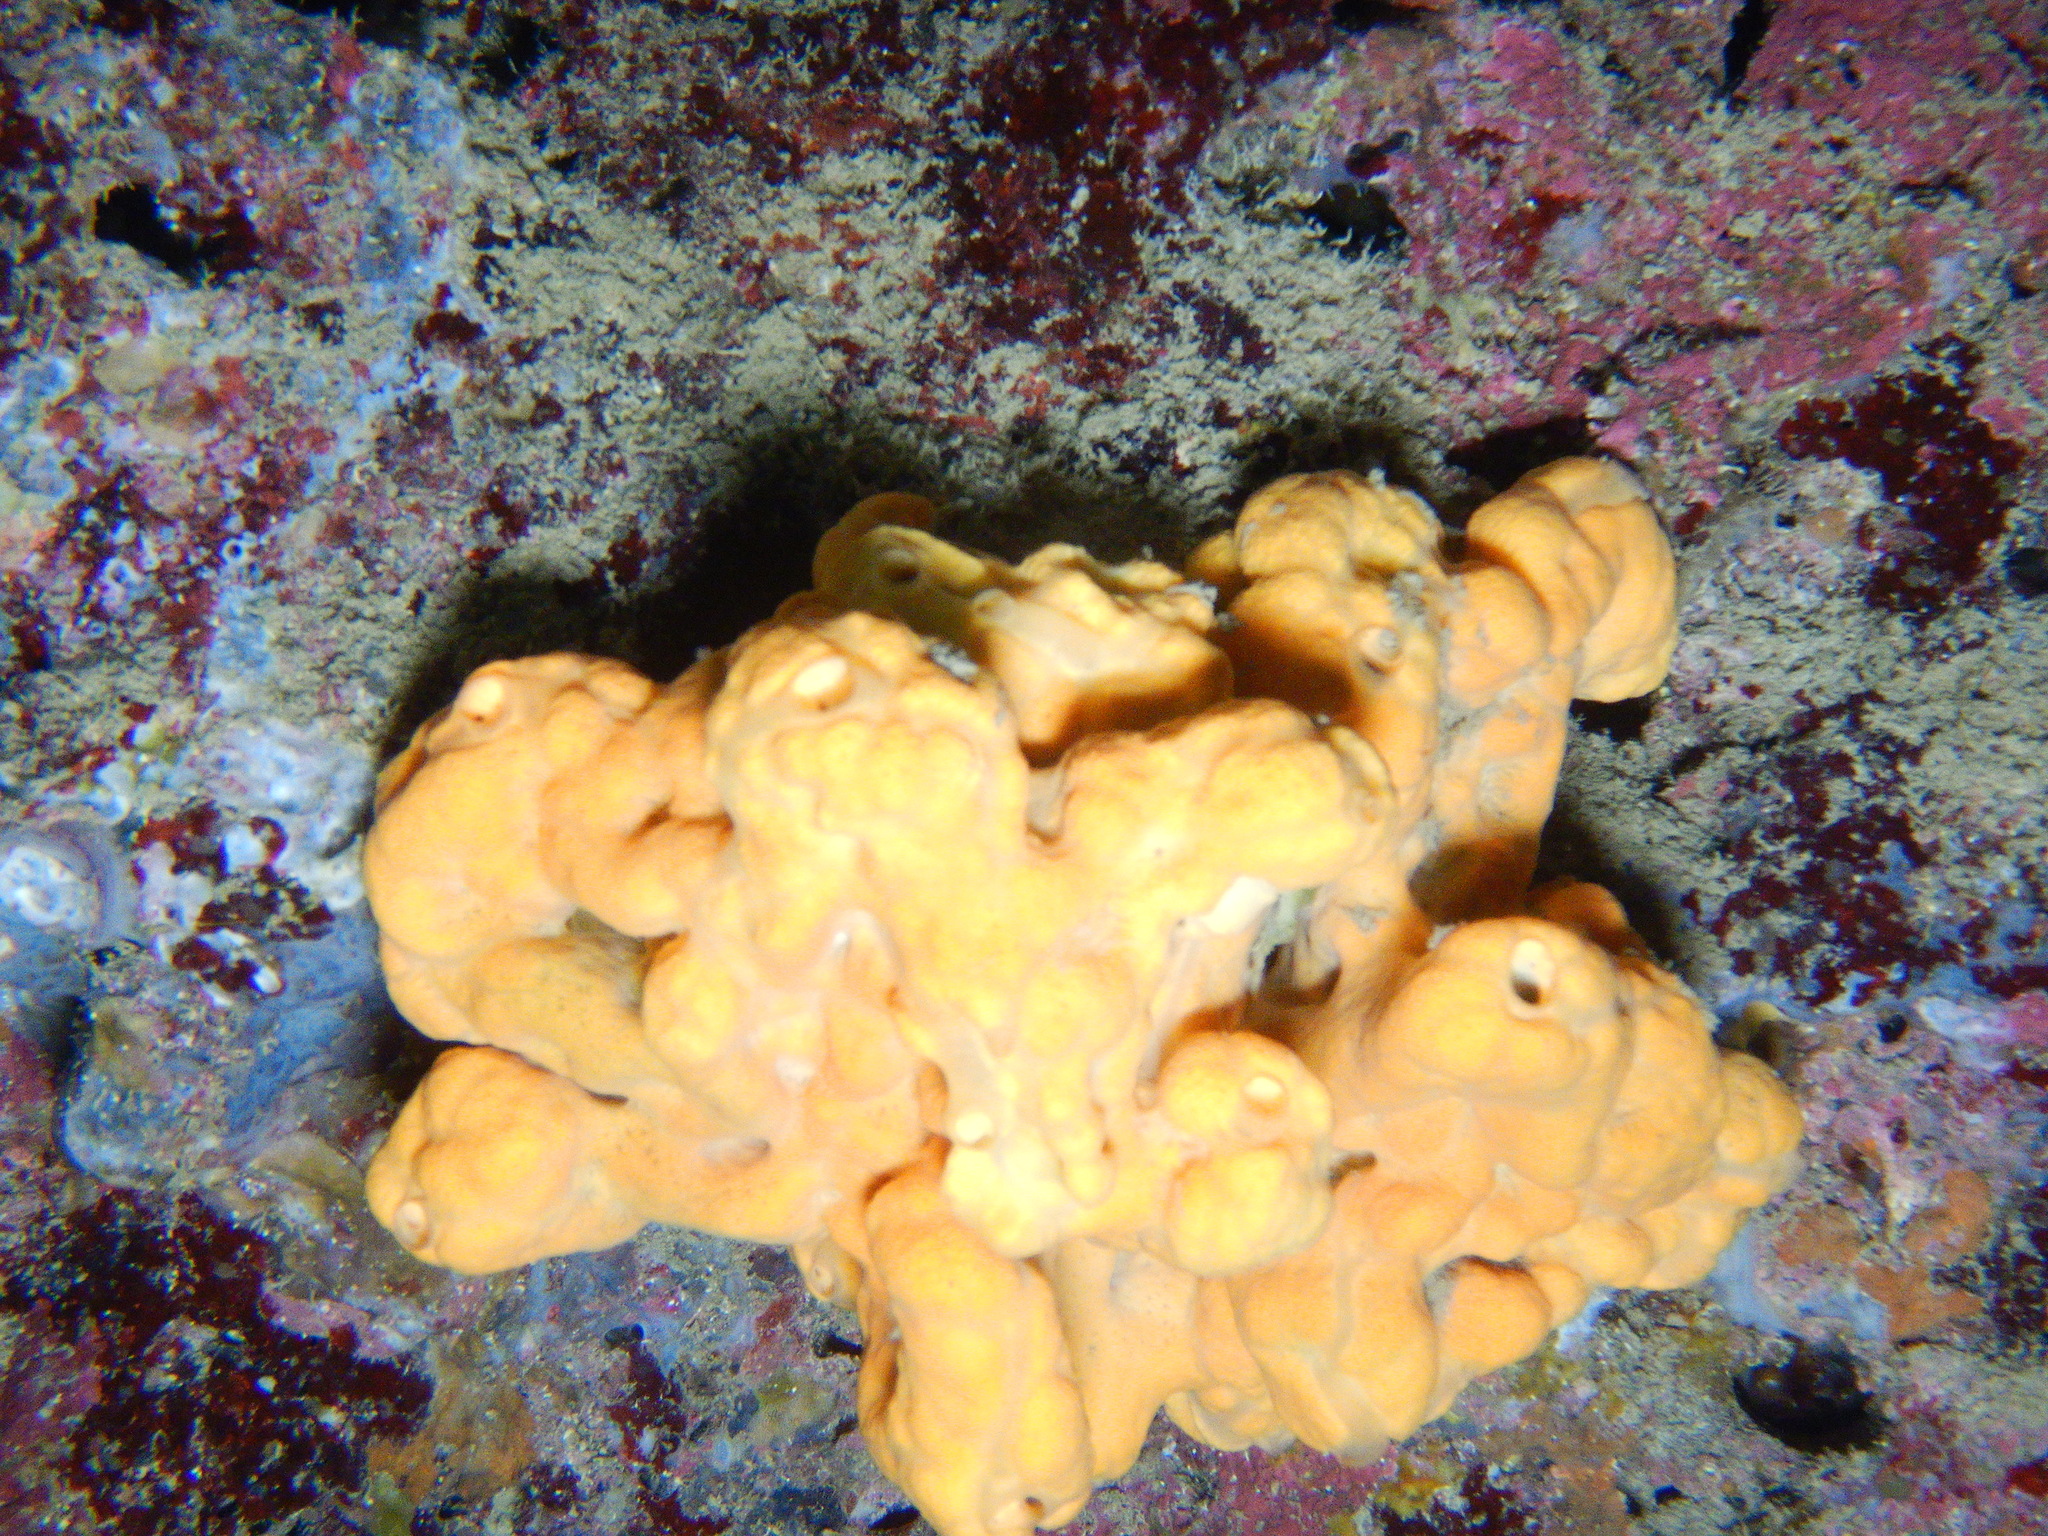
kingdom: Animalia
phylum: Porifera
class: Demospongiae
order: Agelasida
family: Agelasidae
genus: Agelas
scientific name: Agelas oroides
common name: Maltese sponge
